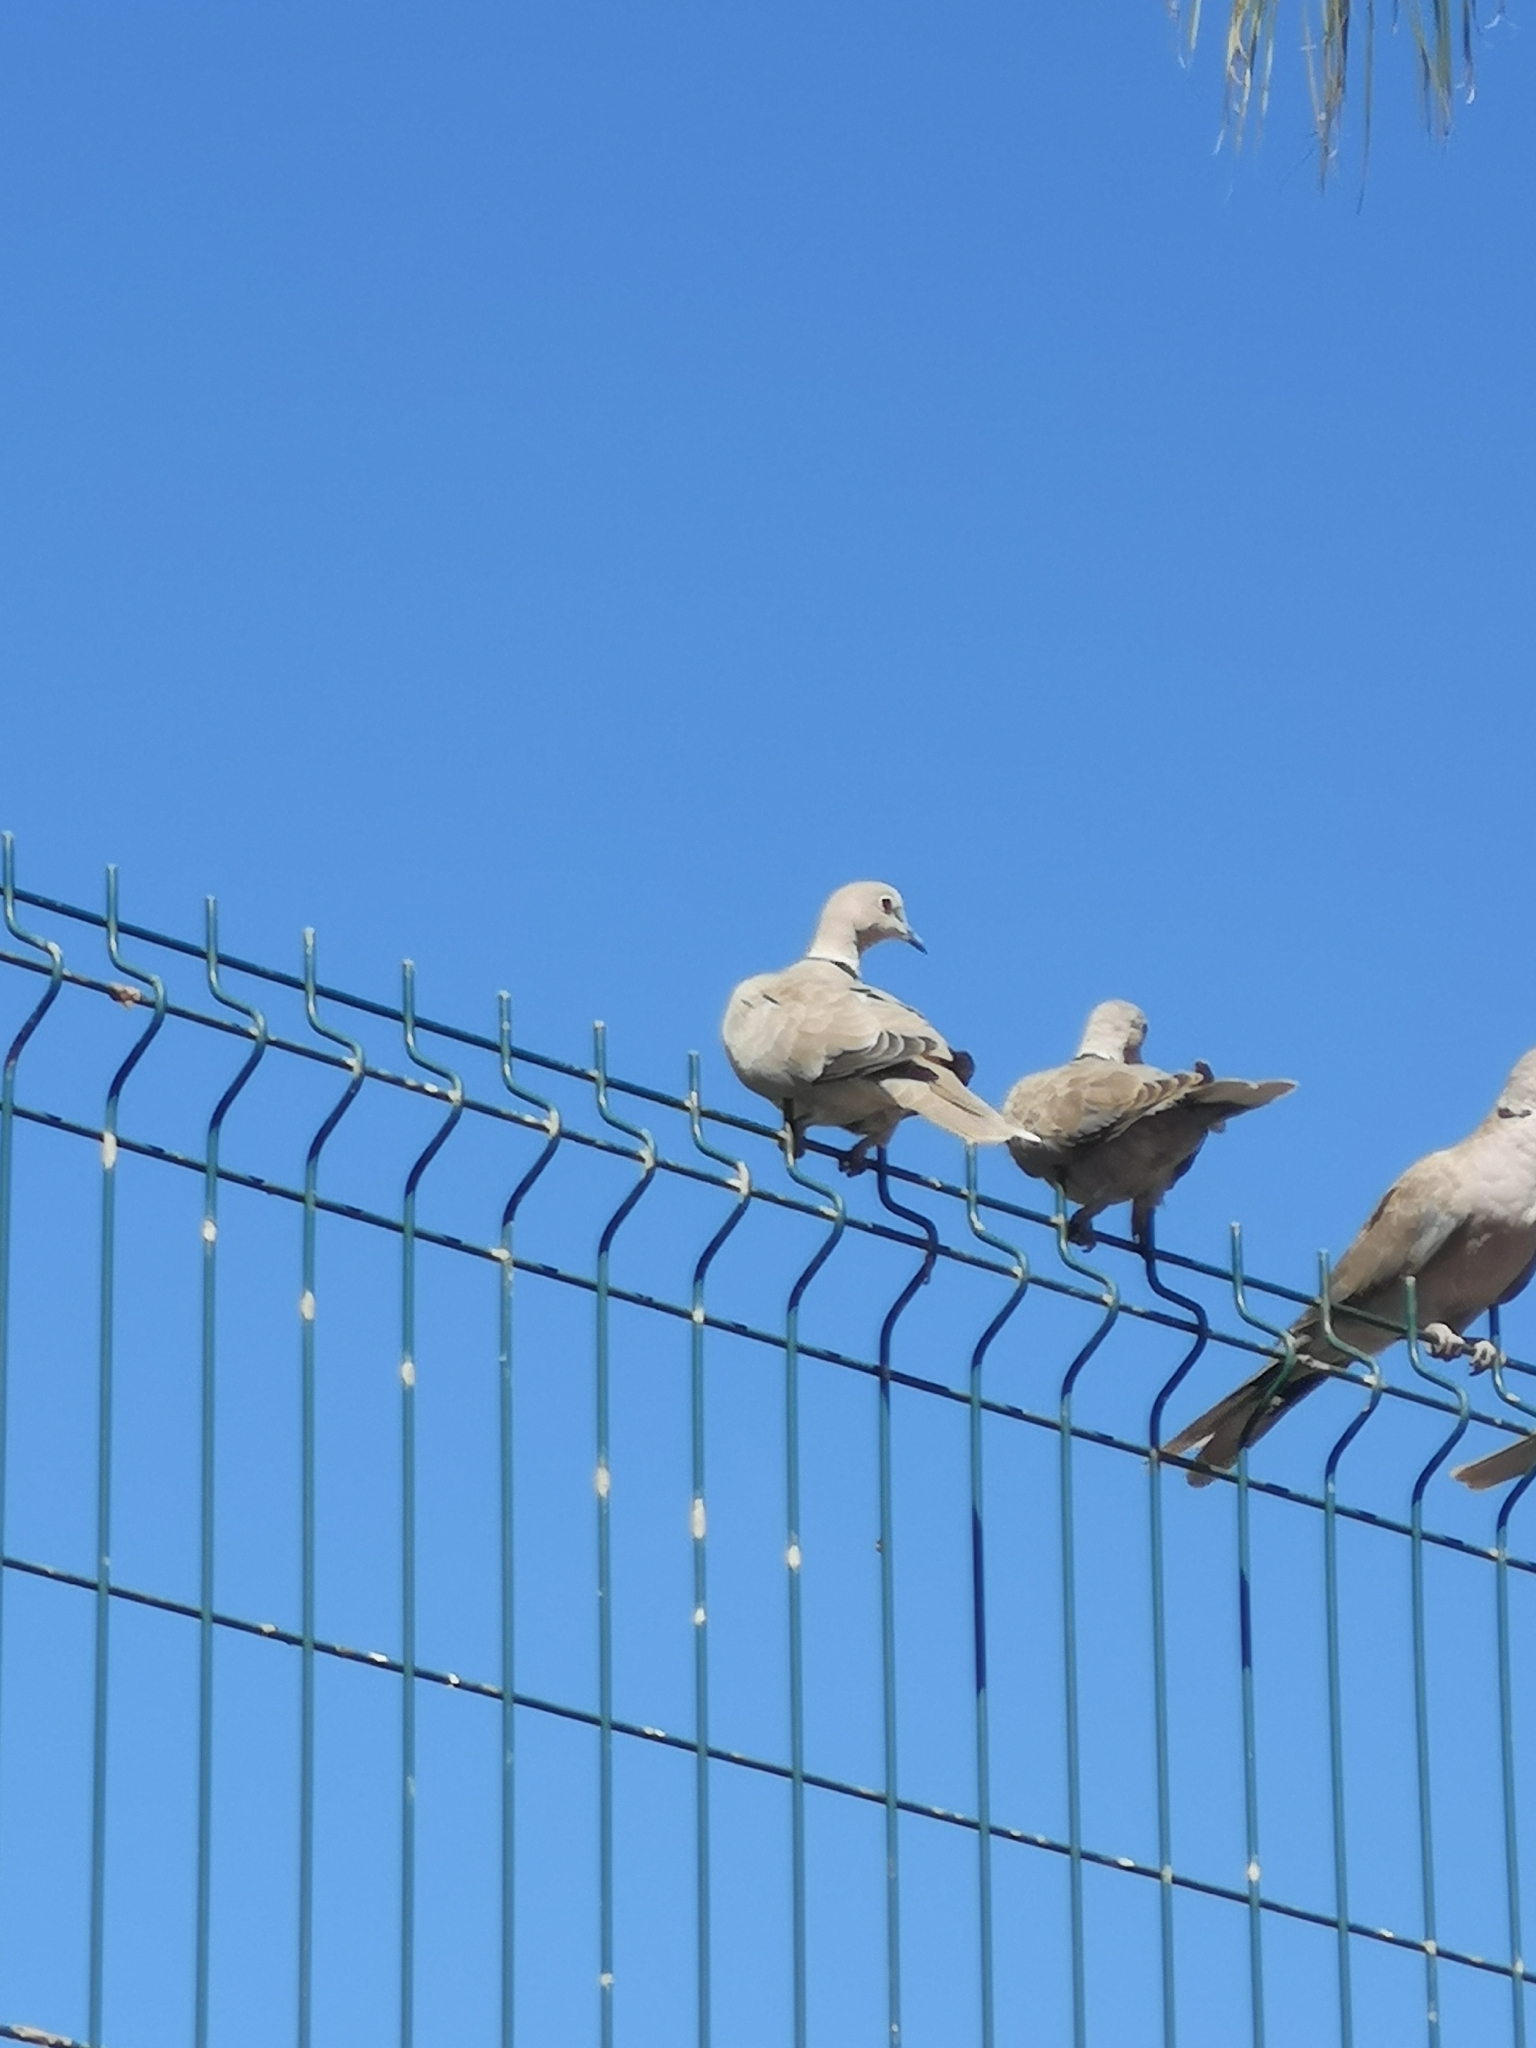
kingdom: Animalia
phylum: Chordata
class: Aves
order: Columbiformes
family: Columbidae
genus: Streptopelia
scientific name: Streptopelia decaocto
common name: Eurasian collared dove
